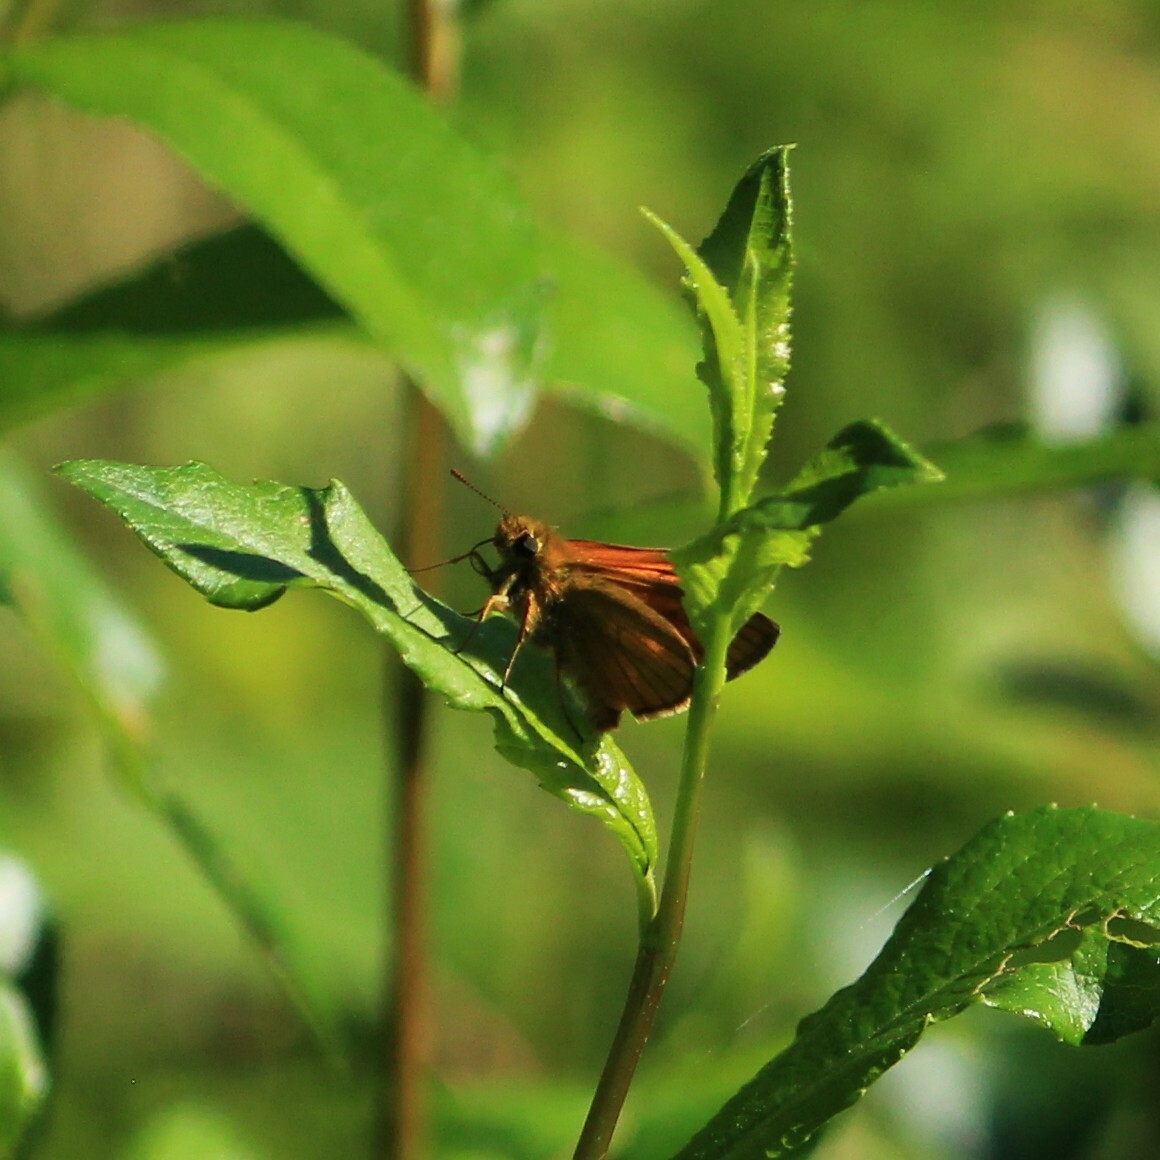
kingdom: Animalia
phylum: Arthropoda
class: Insecta
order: Lepidoptera
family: Hesperiidae
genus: Ochlodes
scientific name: Ochlodes venata
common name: Large skipper
